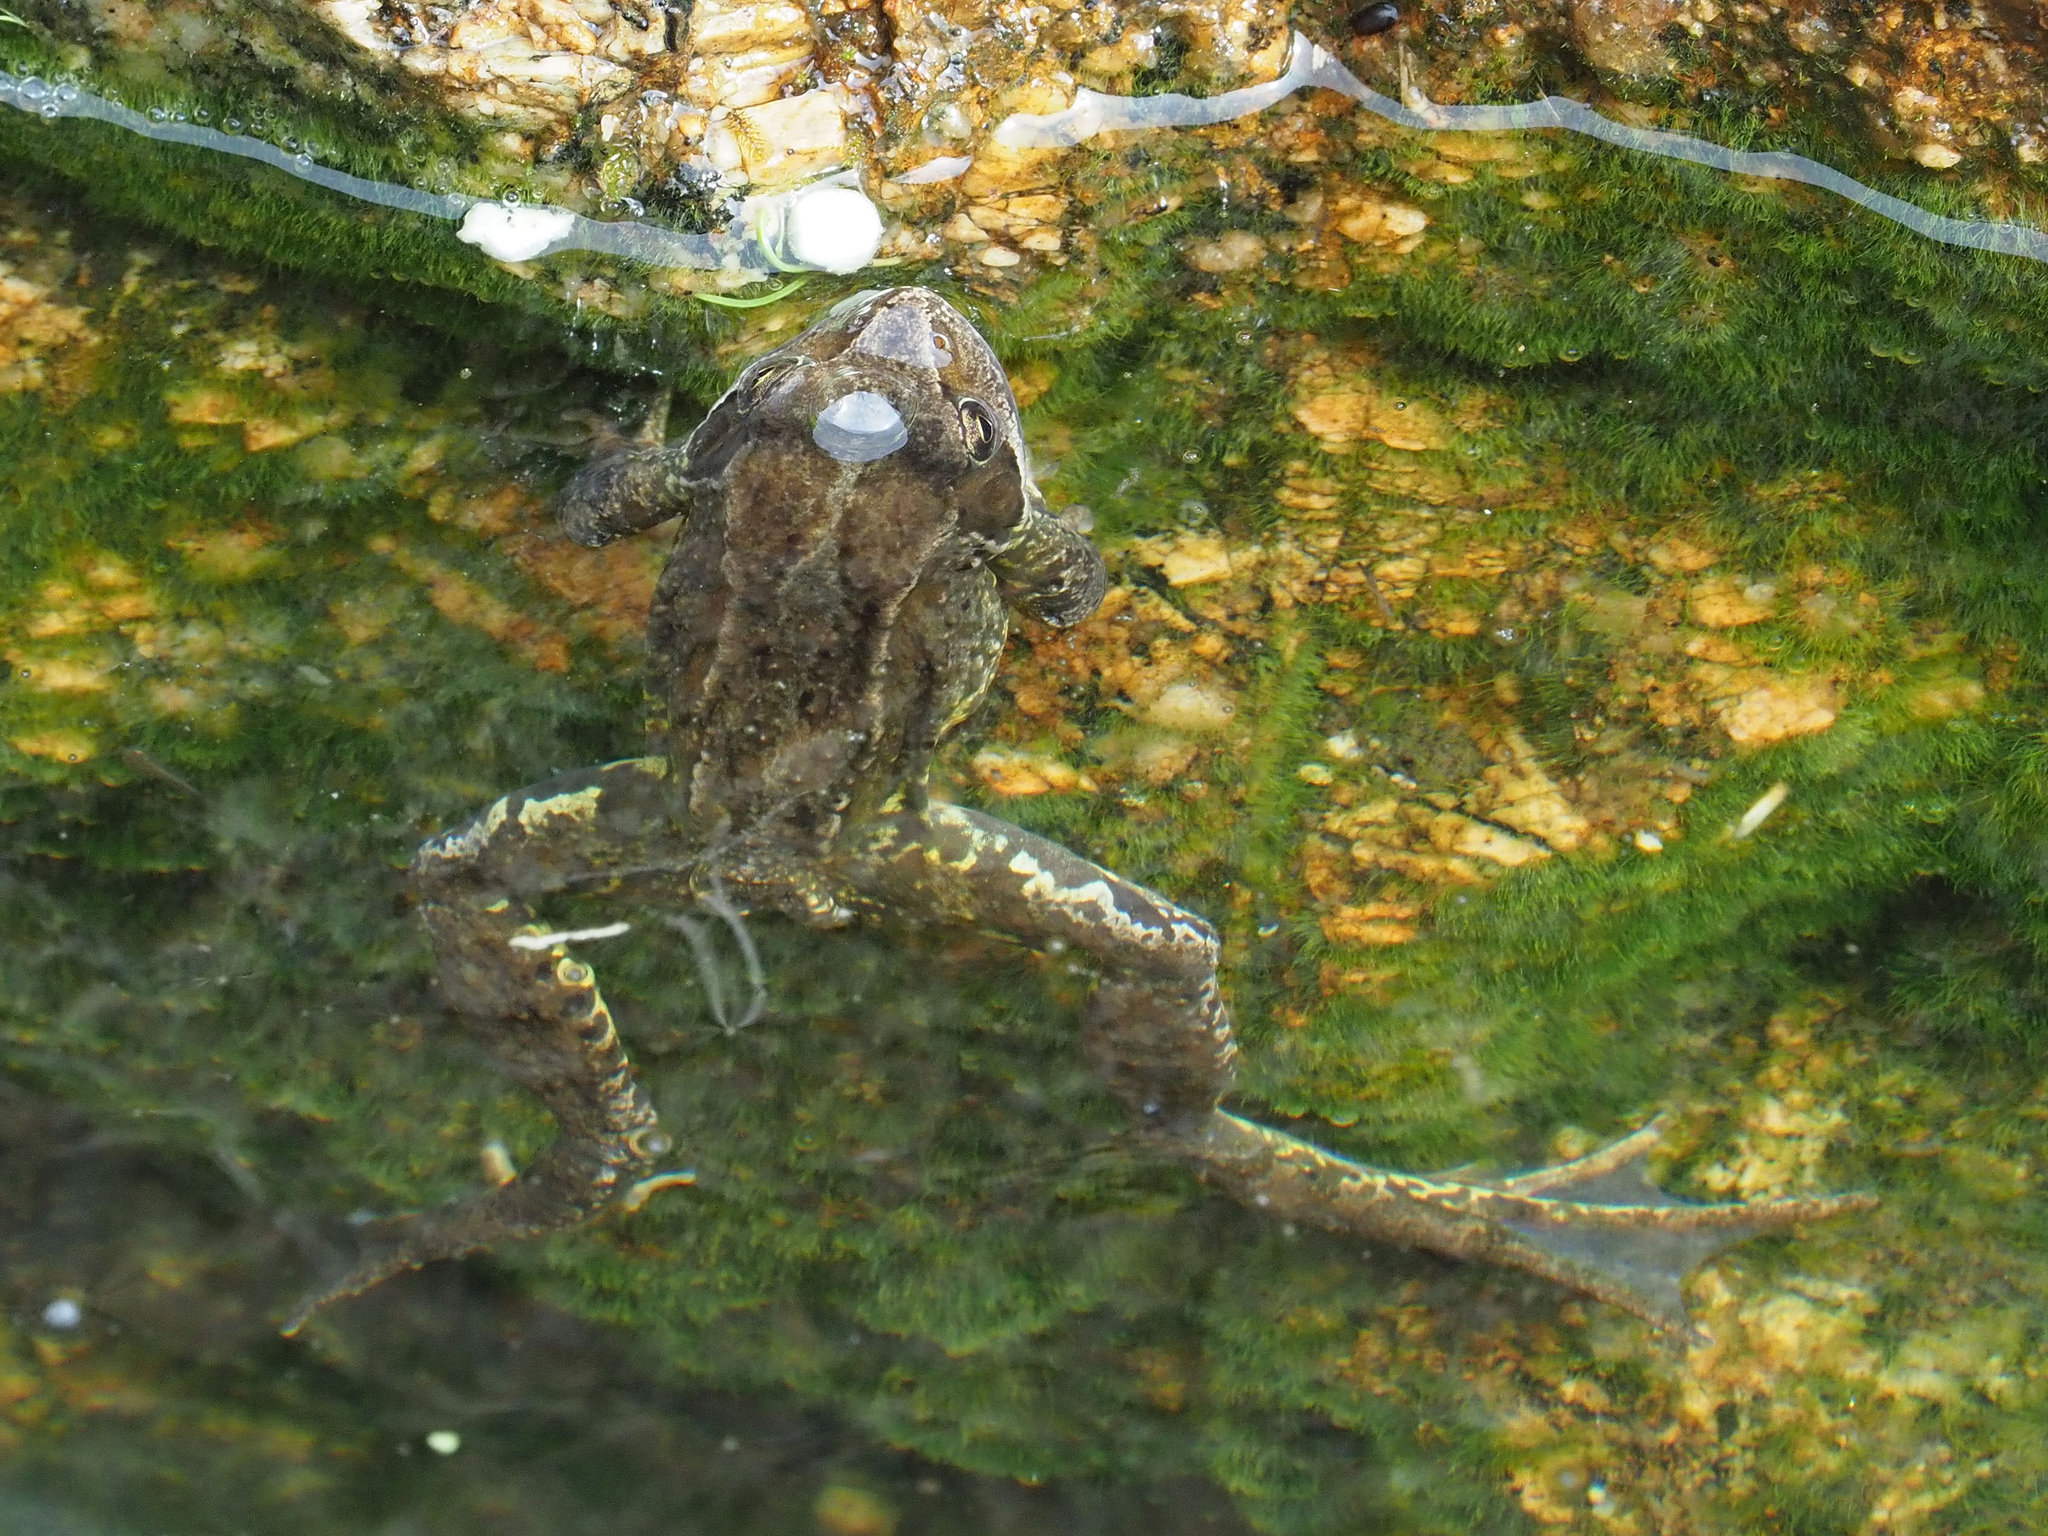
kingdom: Animalia
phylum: Chordata
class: Amphibia
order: Anura
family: Ranidae
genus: Rana
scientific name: Rana temporaria
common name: Common frog
